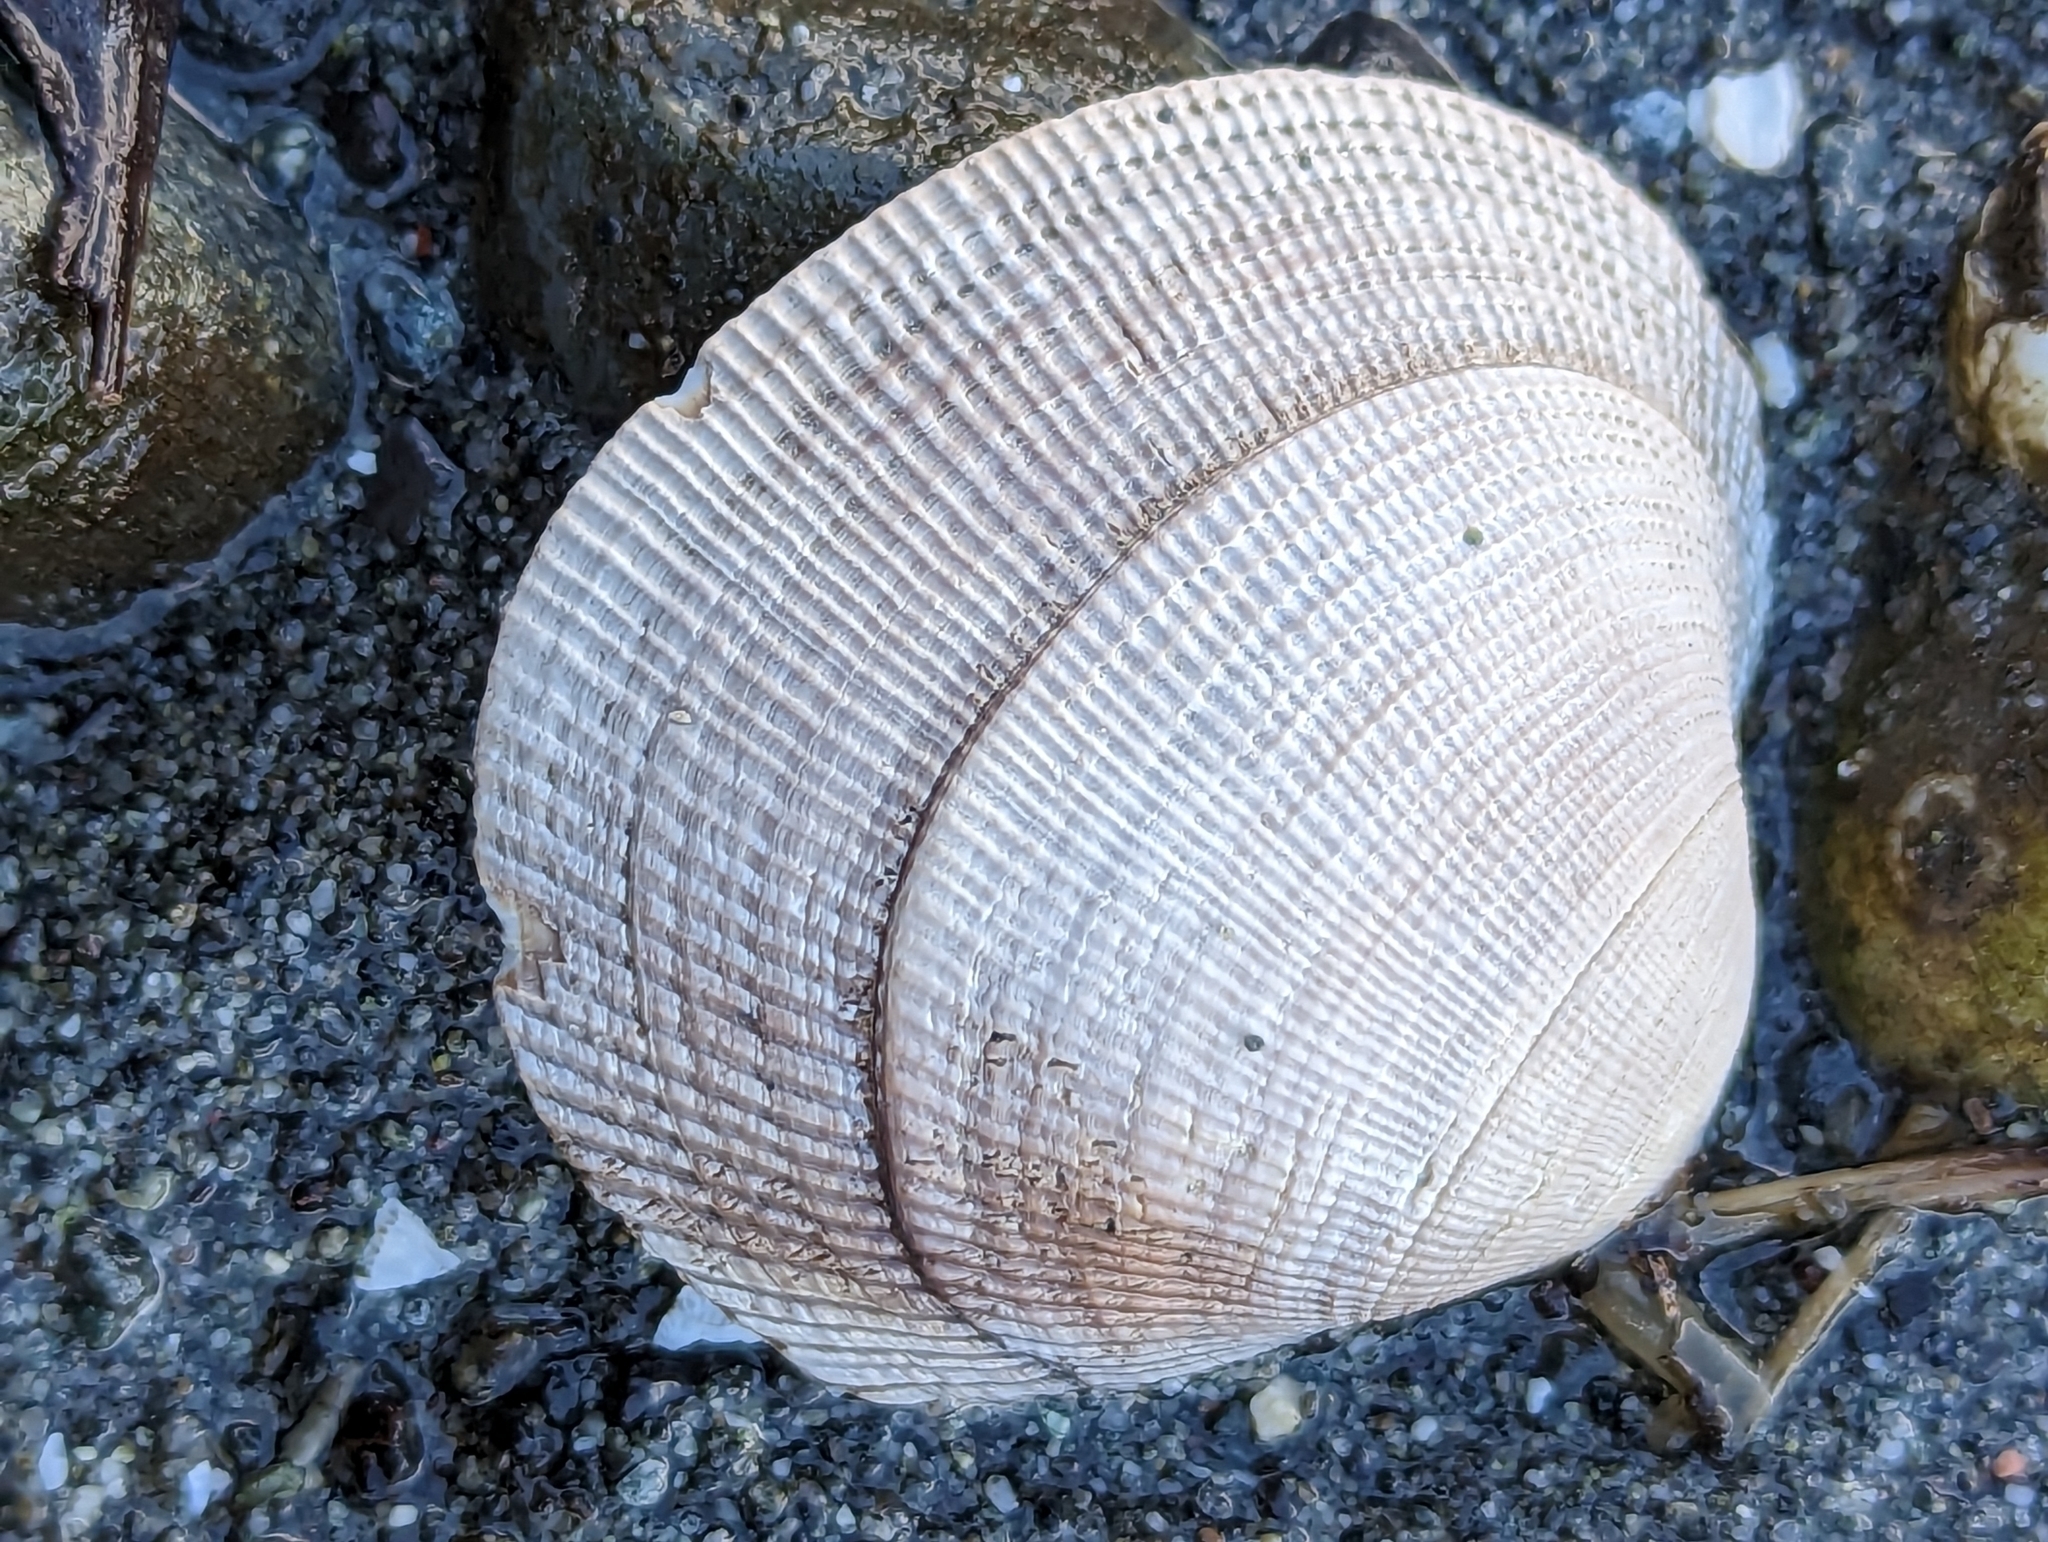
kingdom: Animalia
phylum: Mollusca
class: Bivalvia
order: Venerida
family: Veneridae
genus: Leukoma
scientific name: Leukoma staminea
